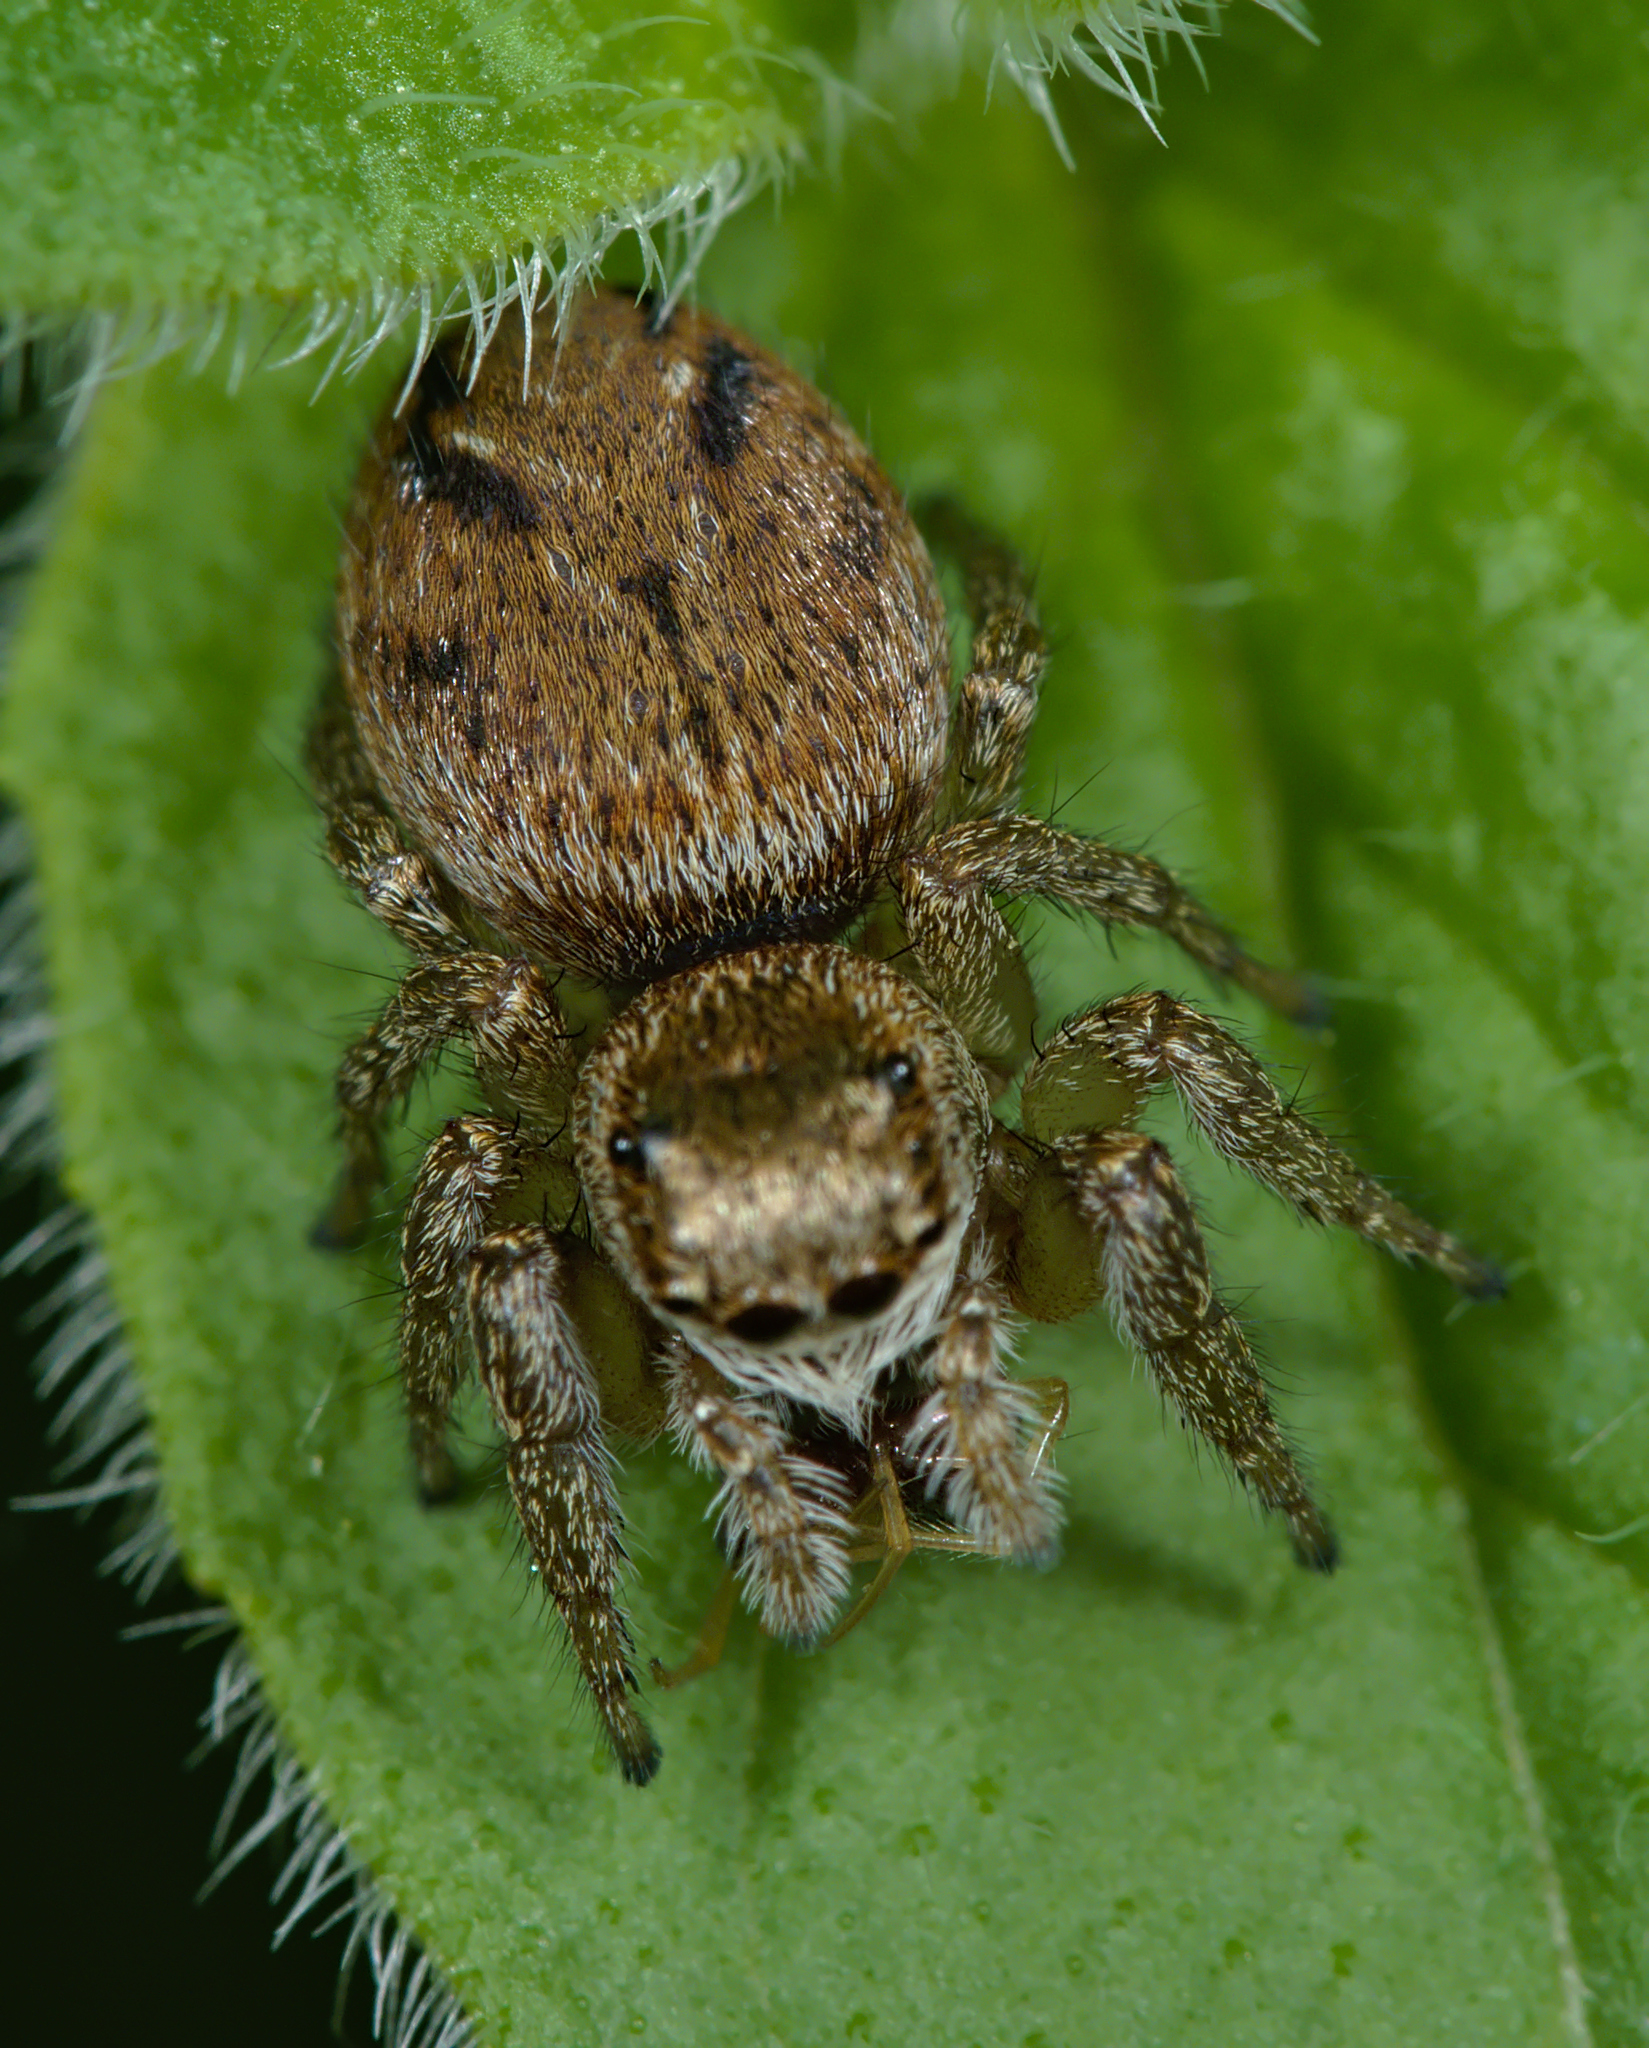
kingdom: Animalia
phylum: Arthropoda
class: Arachnida
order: Araneae
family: Salticidae
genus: Evarcha
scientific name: Evarcha arcuata
